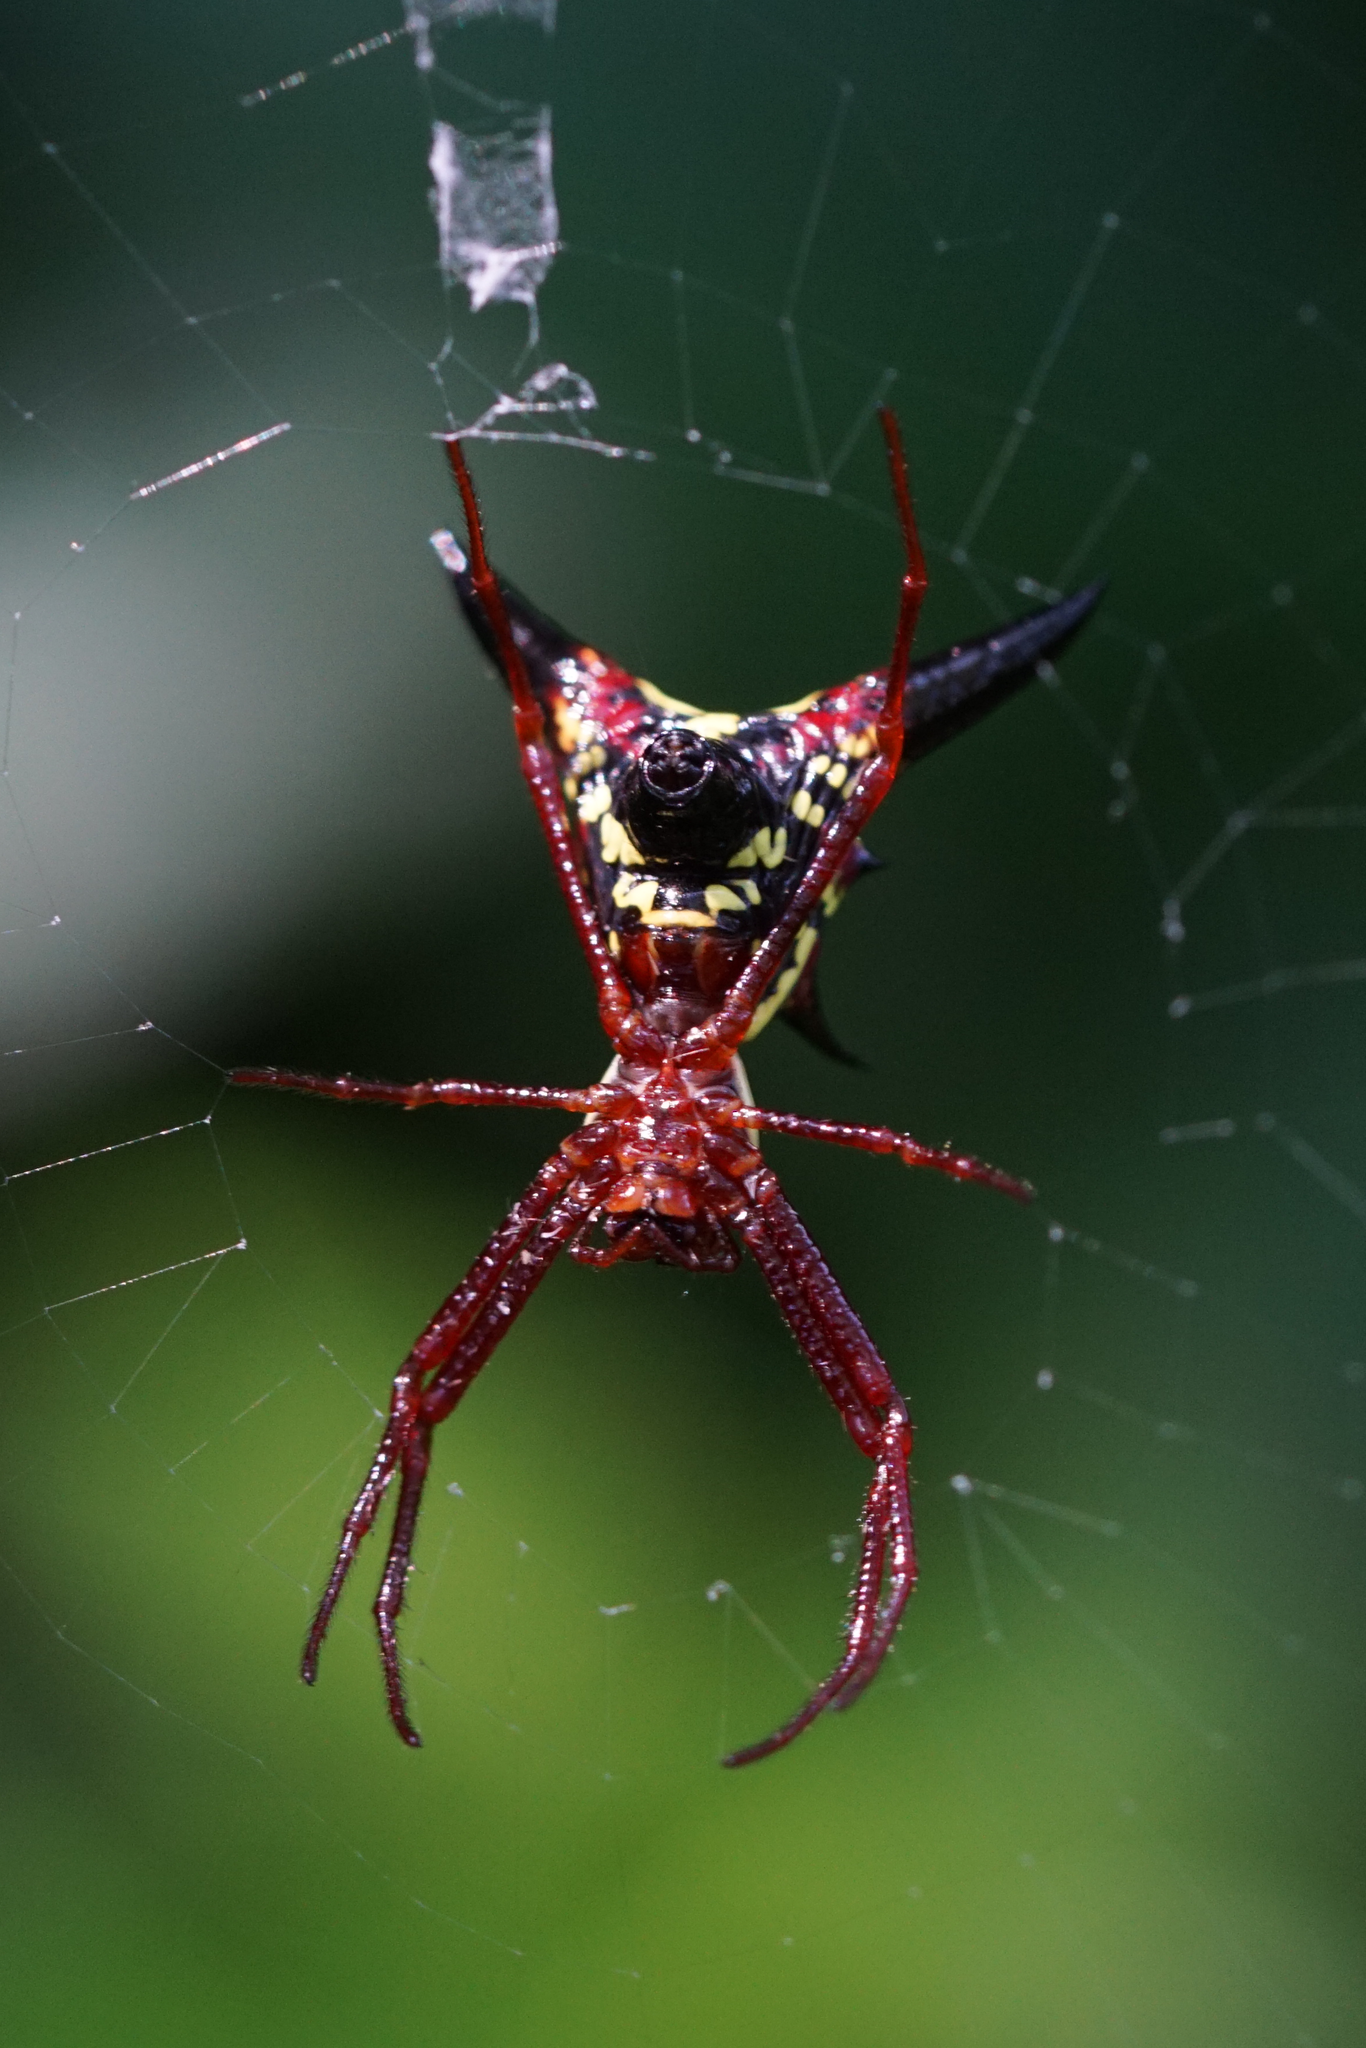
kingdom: Animalia
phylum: Arthropoda
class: Arachnida
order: Araneae
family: Araneidae
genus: Micrathena
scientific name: Micrathena sagittata
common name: Orb weavers
